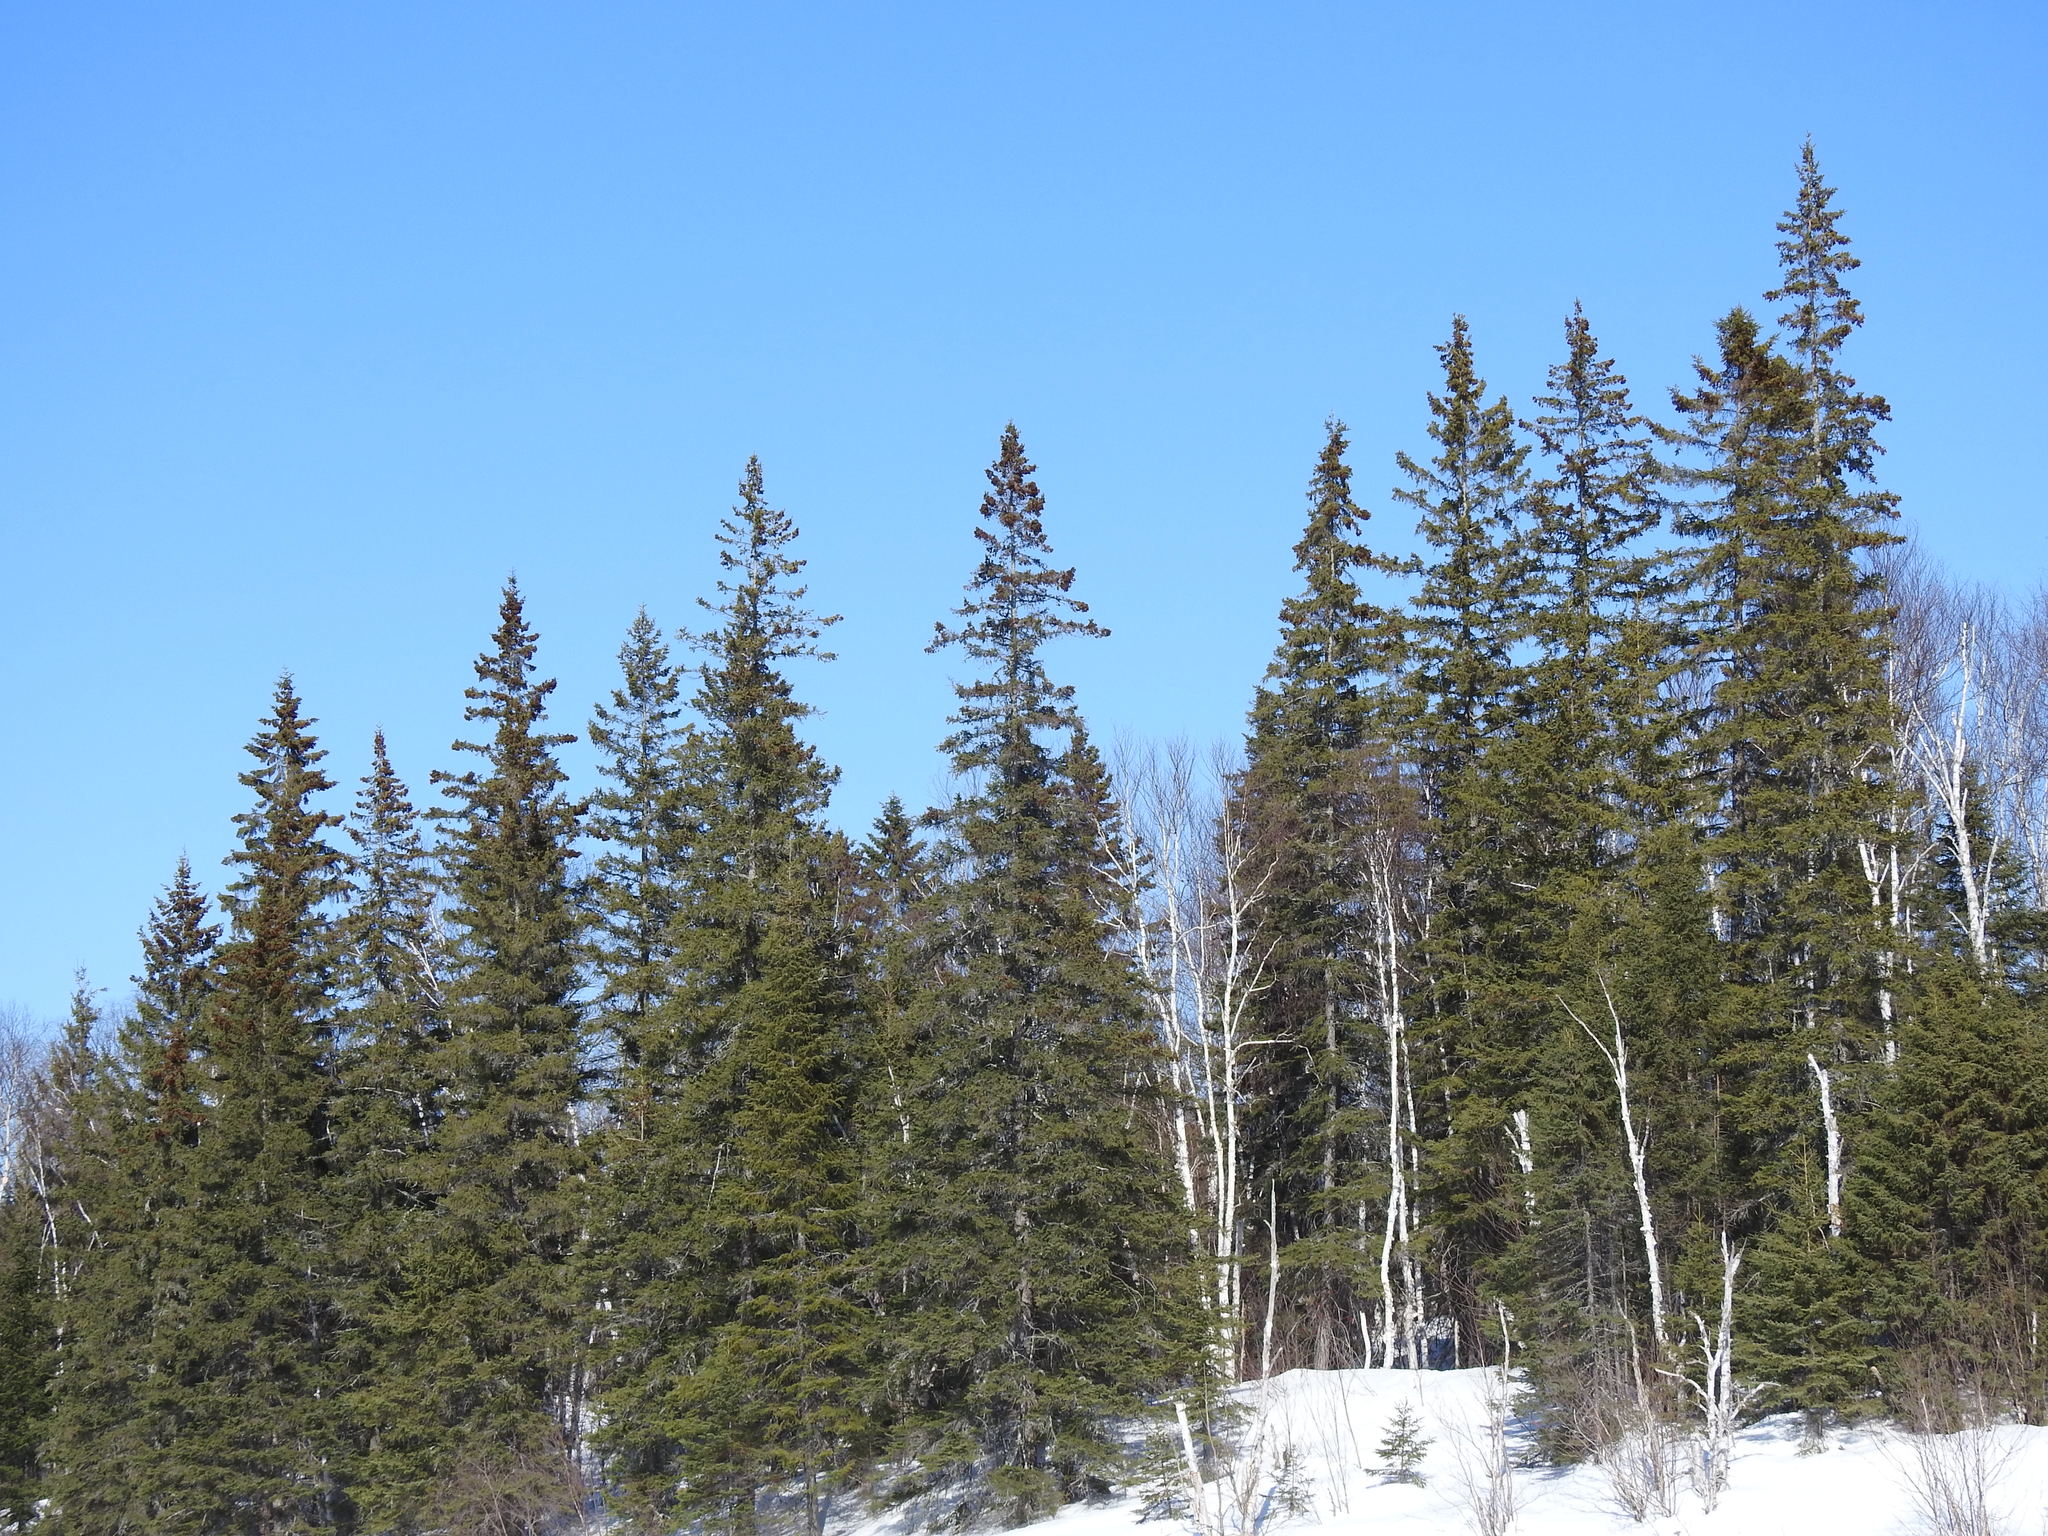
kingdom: Plantae
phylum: Tracheophyta
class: Pinopsida
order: Pinales
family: Pinaceae
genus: Picea
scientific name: Picea glauca
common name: White spruce
